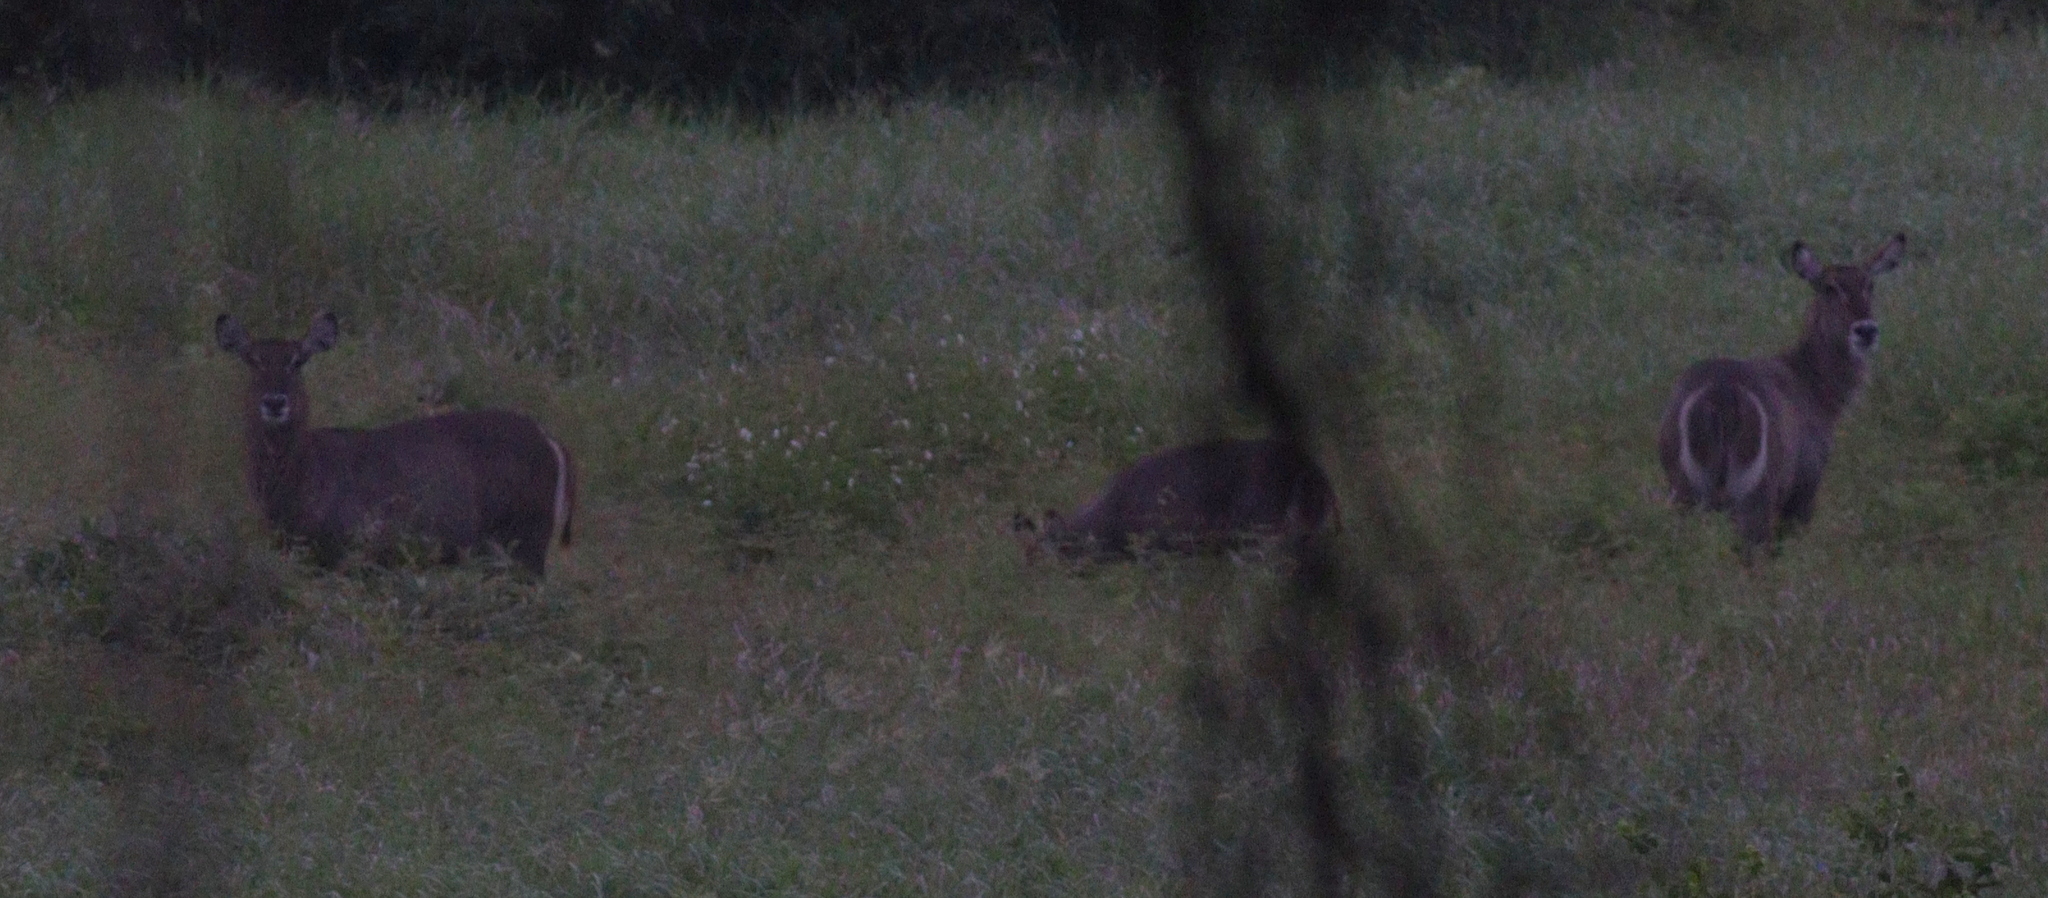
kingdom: Animalia
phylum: Chordata
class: Mammalia
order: Artiodactyla
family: Bovidae
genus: Kobus
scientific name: Kobus ellipsiprymnus
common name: Waterbuck
